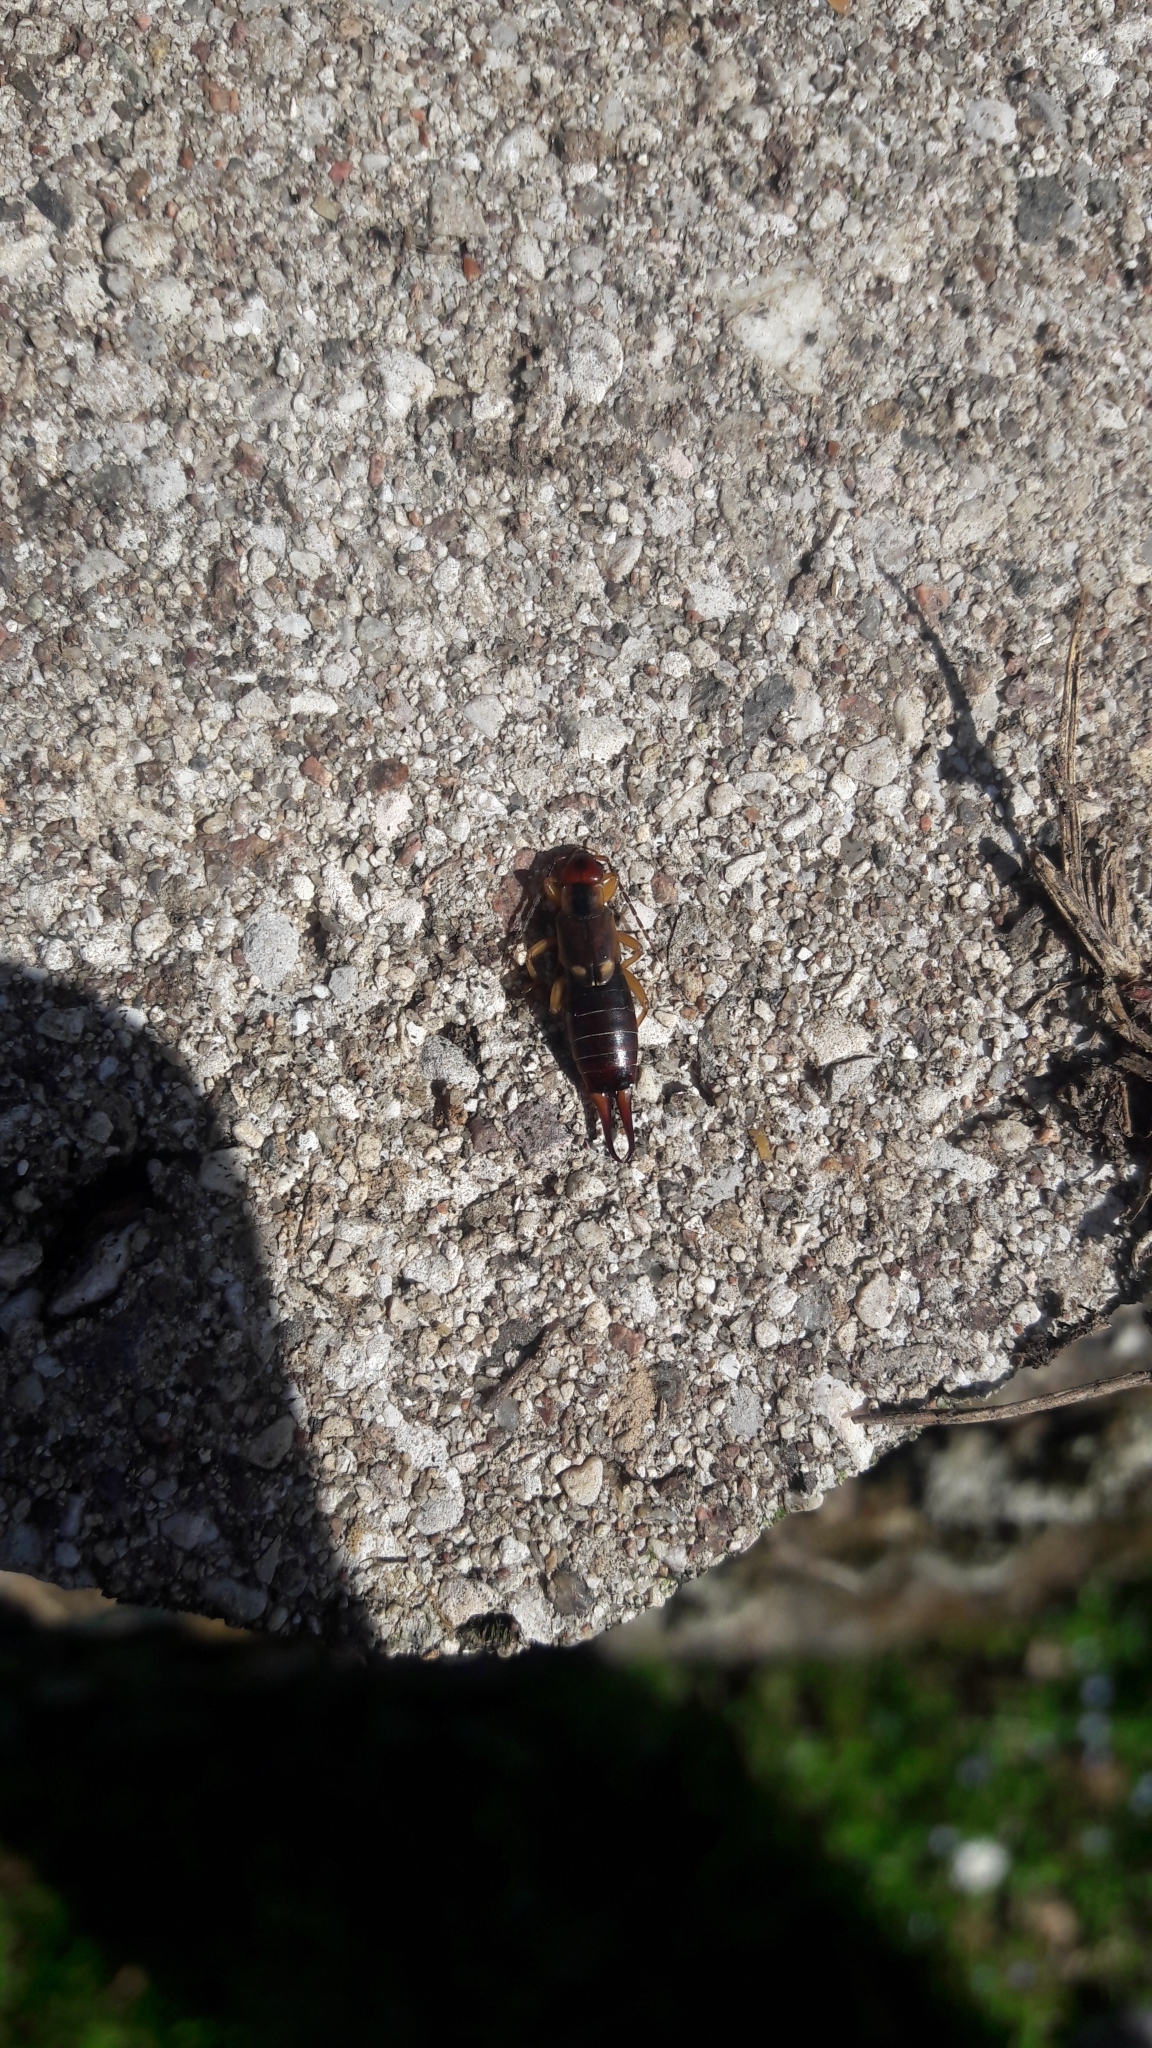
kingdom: Animalia
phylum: Arthropoda
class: Insecta
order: Dermaptera
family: Forficulidae
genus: Forficula
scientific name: Forficula
